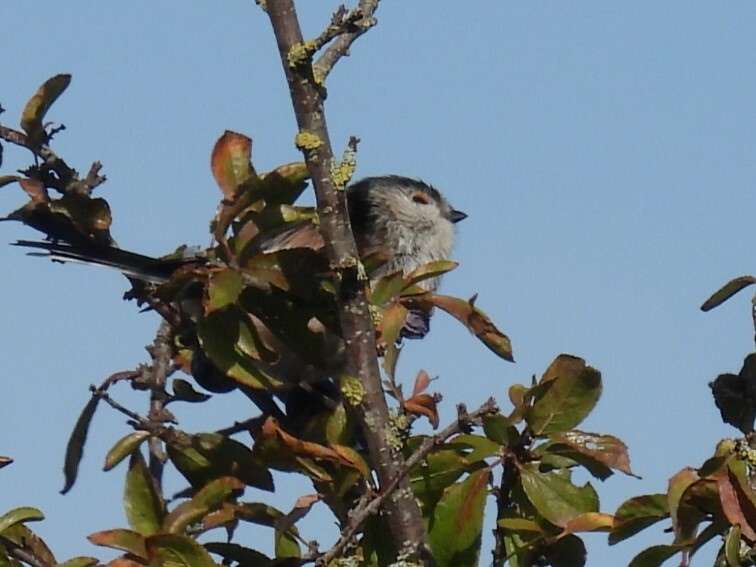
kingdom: Animalia
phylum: Chordata
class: Aves
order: Passeriformes
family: Aegithalidae
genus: Aegithalos
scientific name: Aegithalos caudatus
